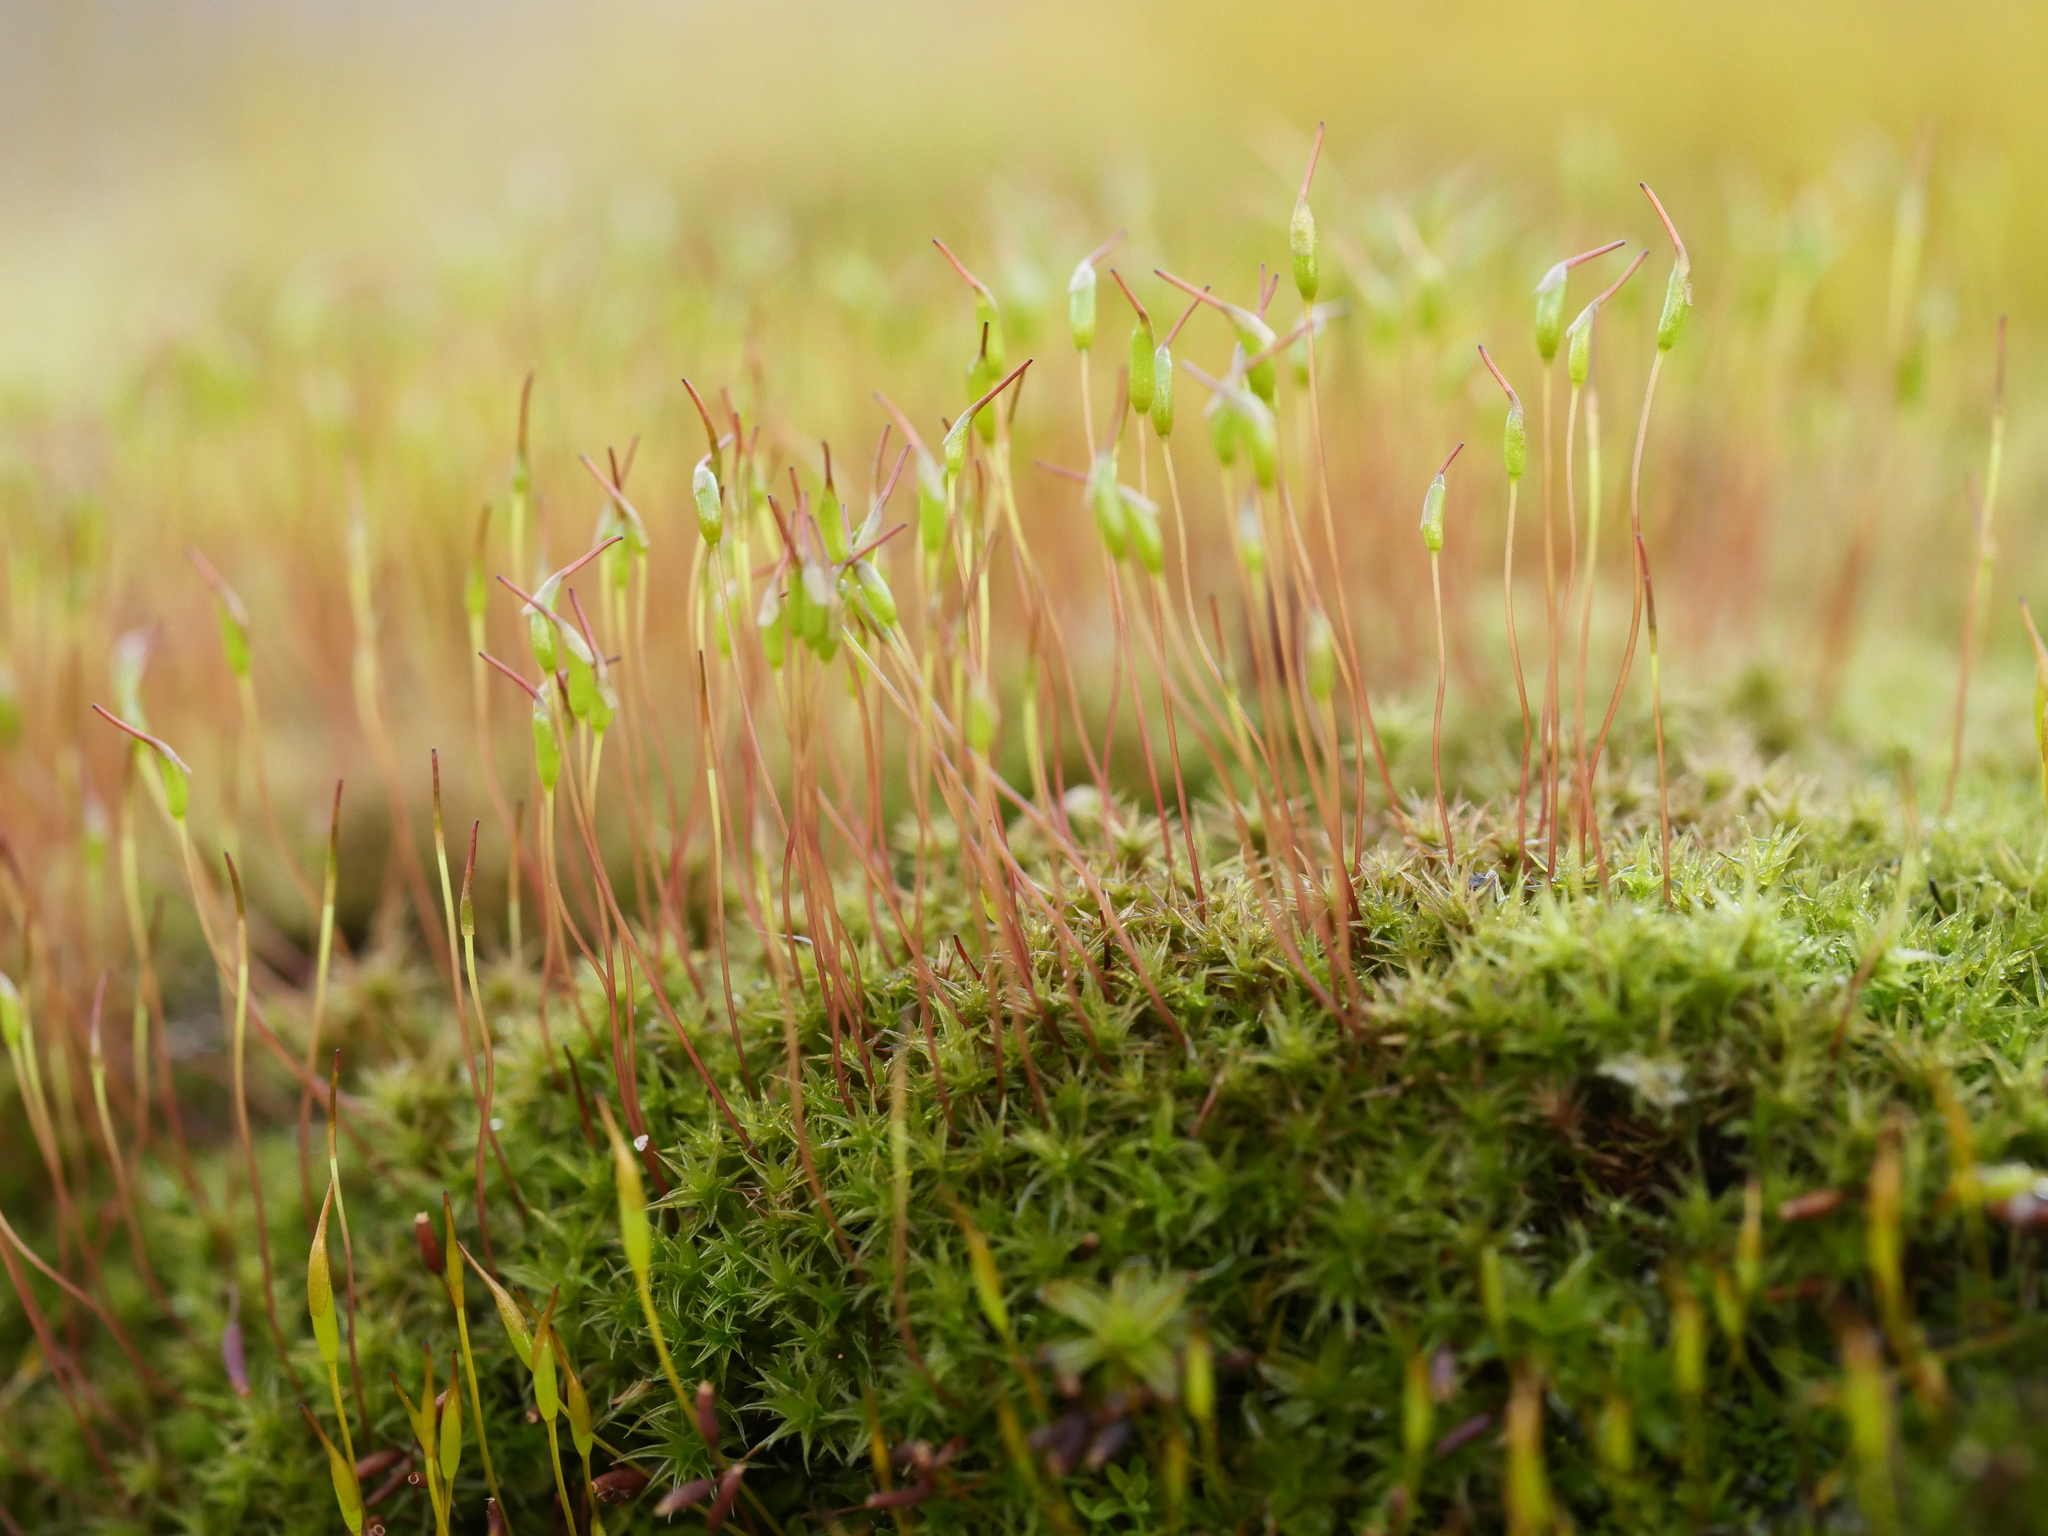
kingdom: Plantae
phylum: Bryophyta
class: Bryopsida
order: Dicranales
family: Ditrichaceae
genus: Ceratodon
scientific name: Ceratodon purpureus
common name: Redshank
